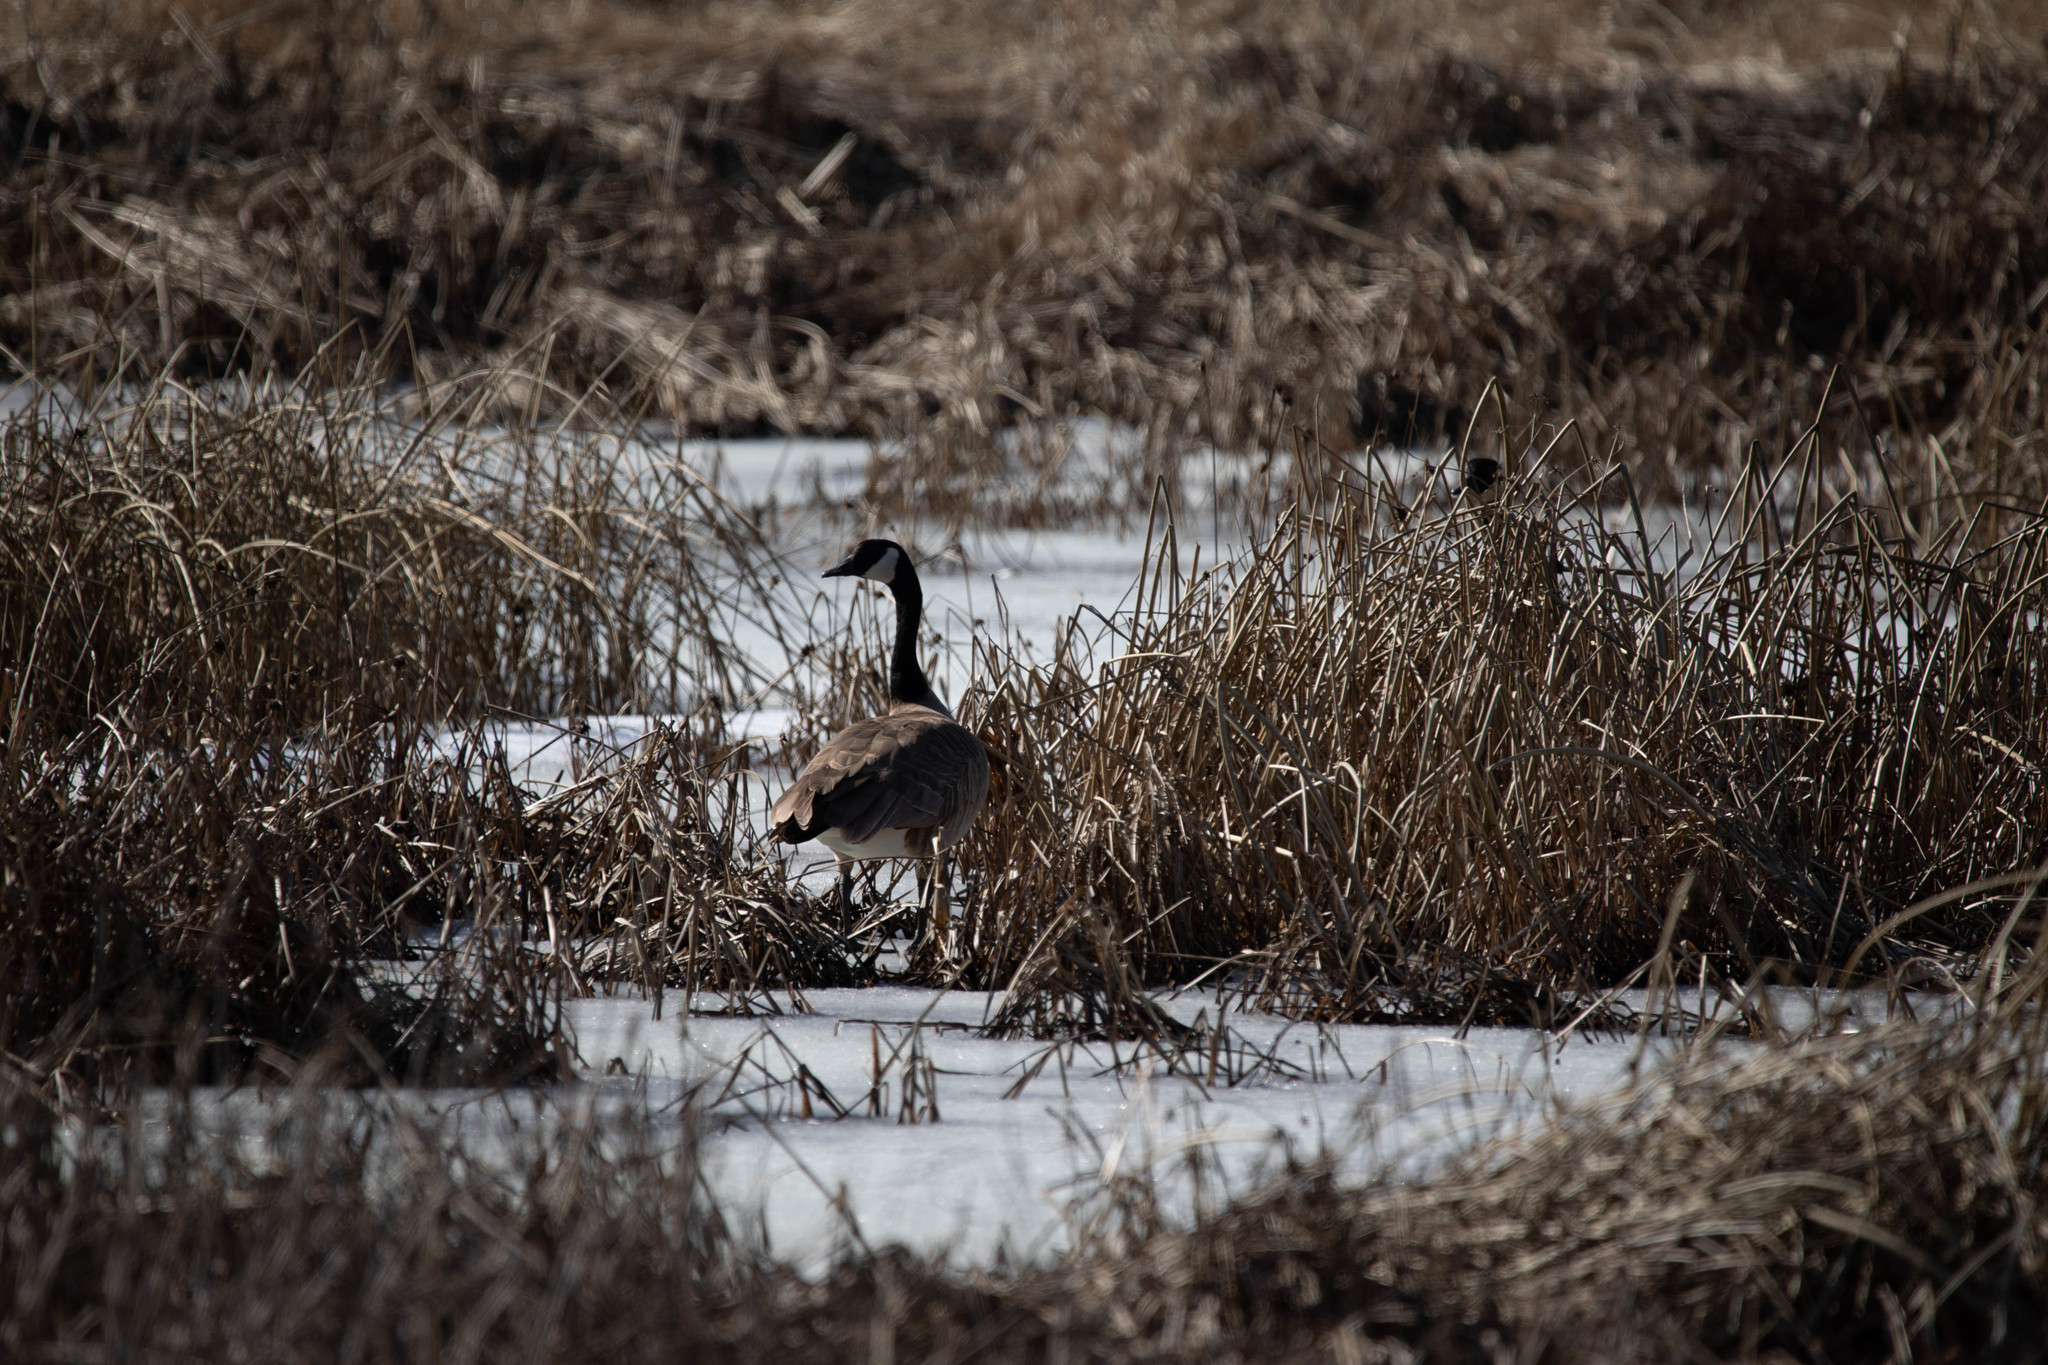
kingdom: Animalia
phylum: Chordata
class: Aves
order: Anseriformes
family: Anatidae
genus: Branta
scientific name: Branta canadensis
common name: Canada goose
